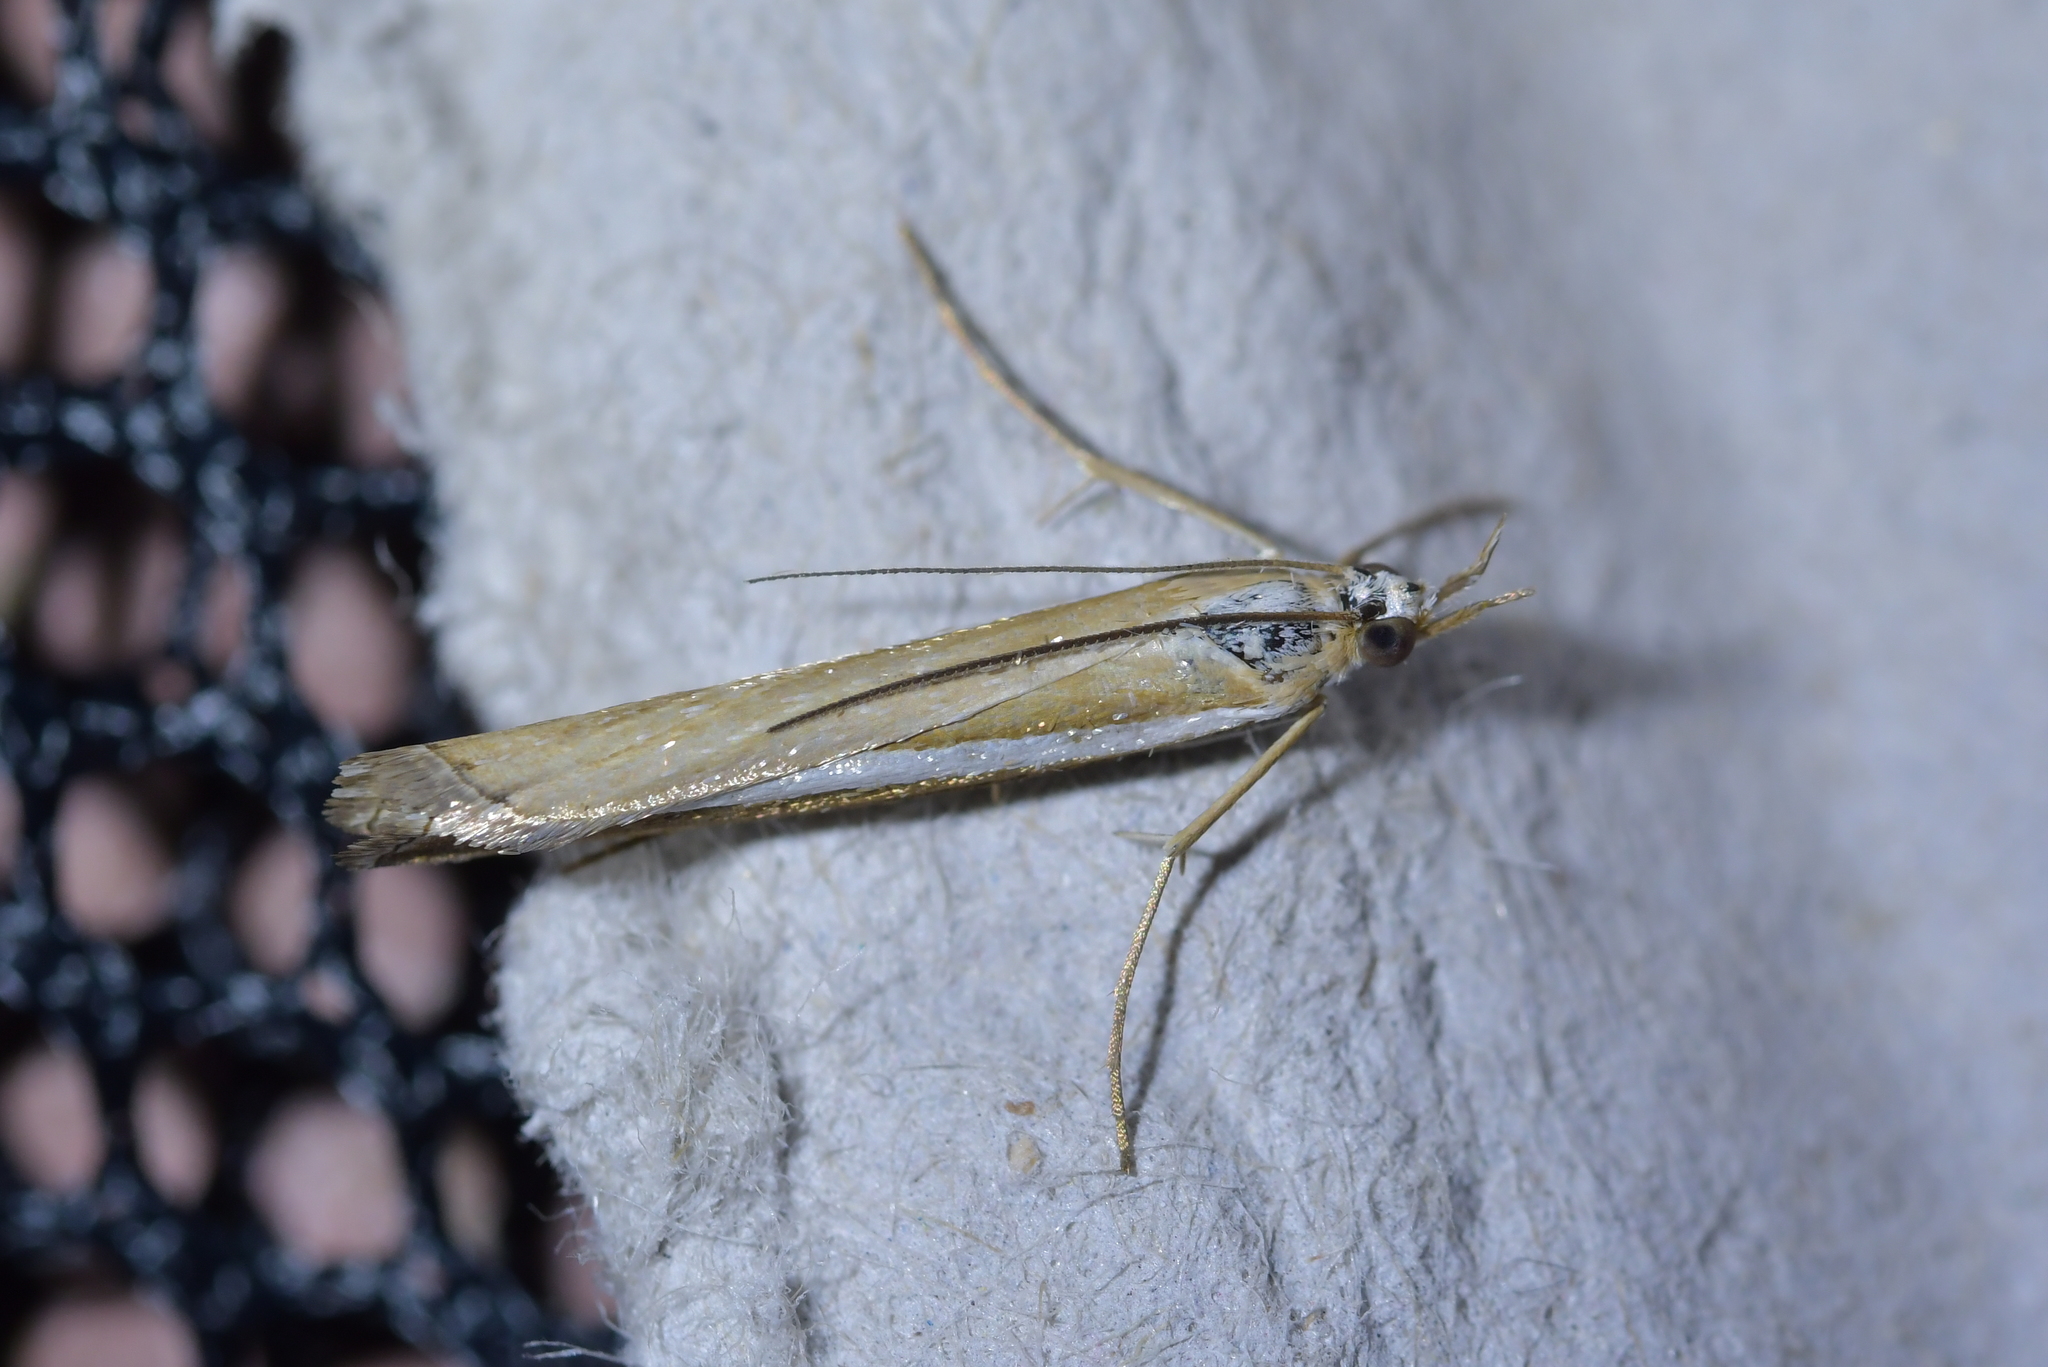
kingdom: Animalia
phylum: Arthropoda
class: Insecta
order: Lepidoptera
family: Crambidae
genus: Orocrambus
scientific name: Orocrambus vittellus
